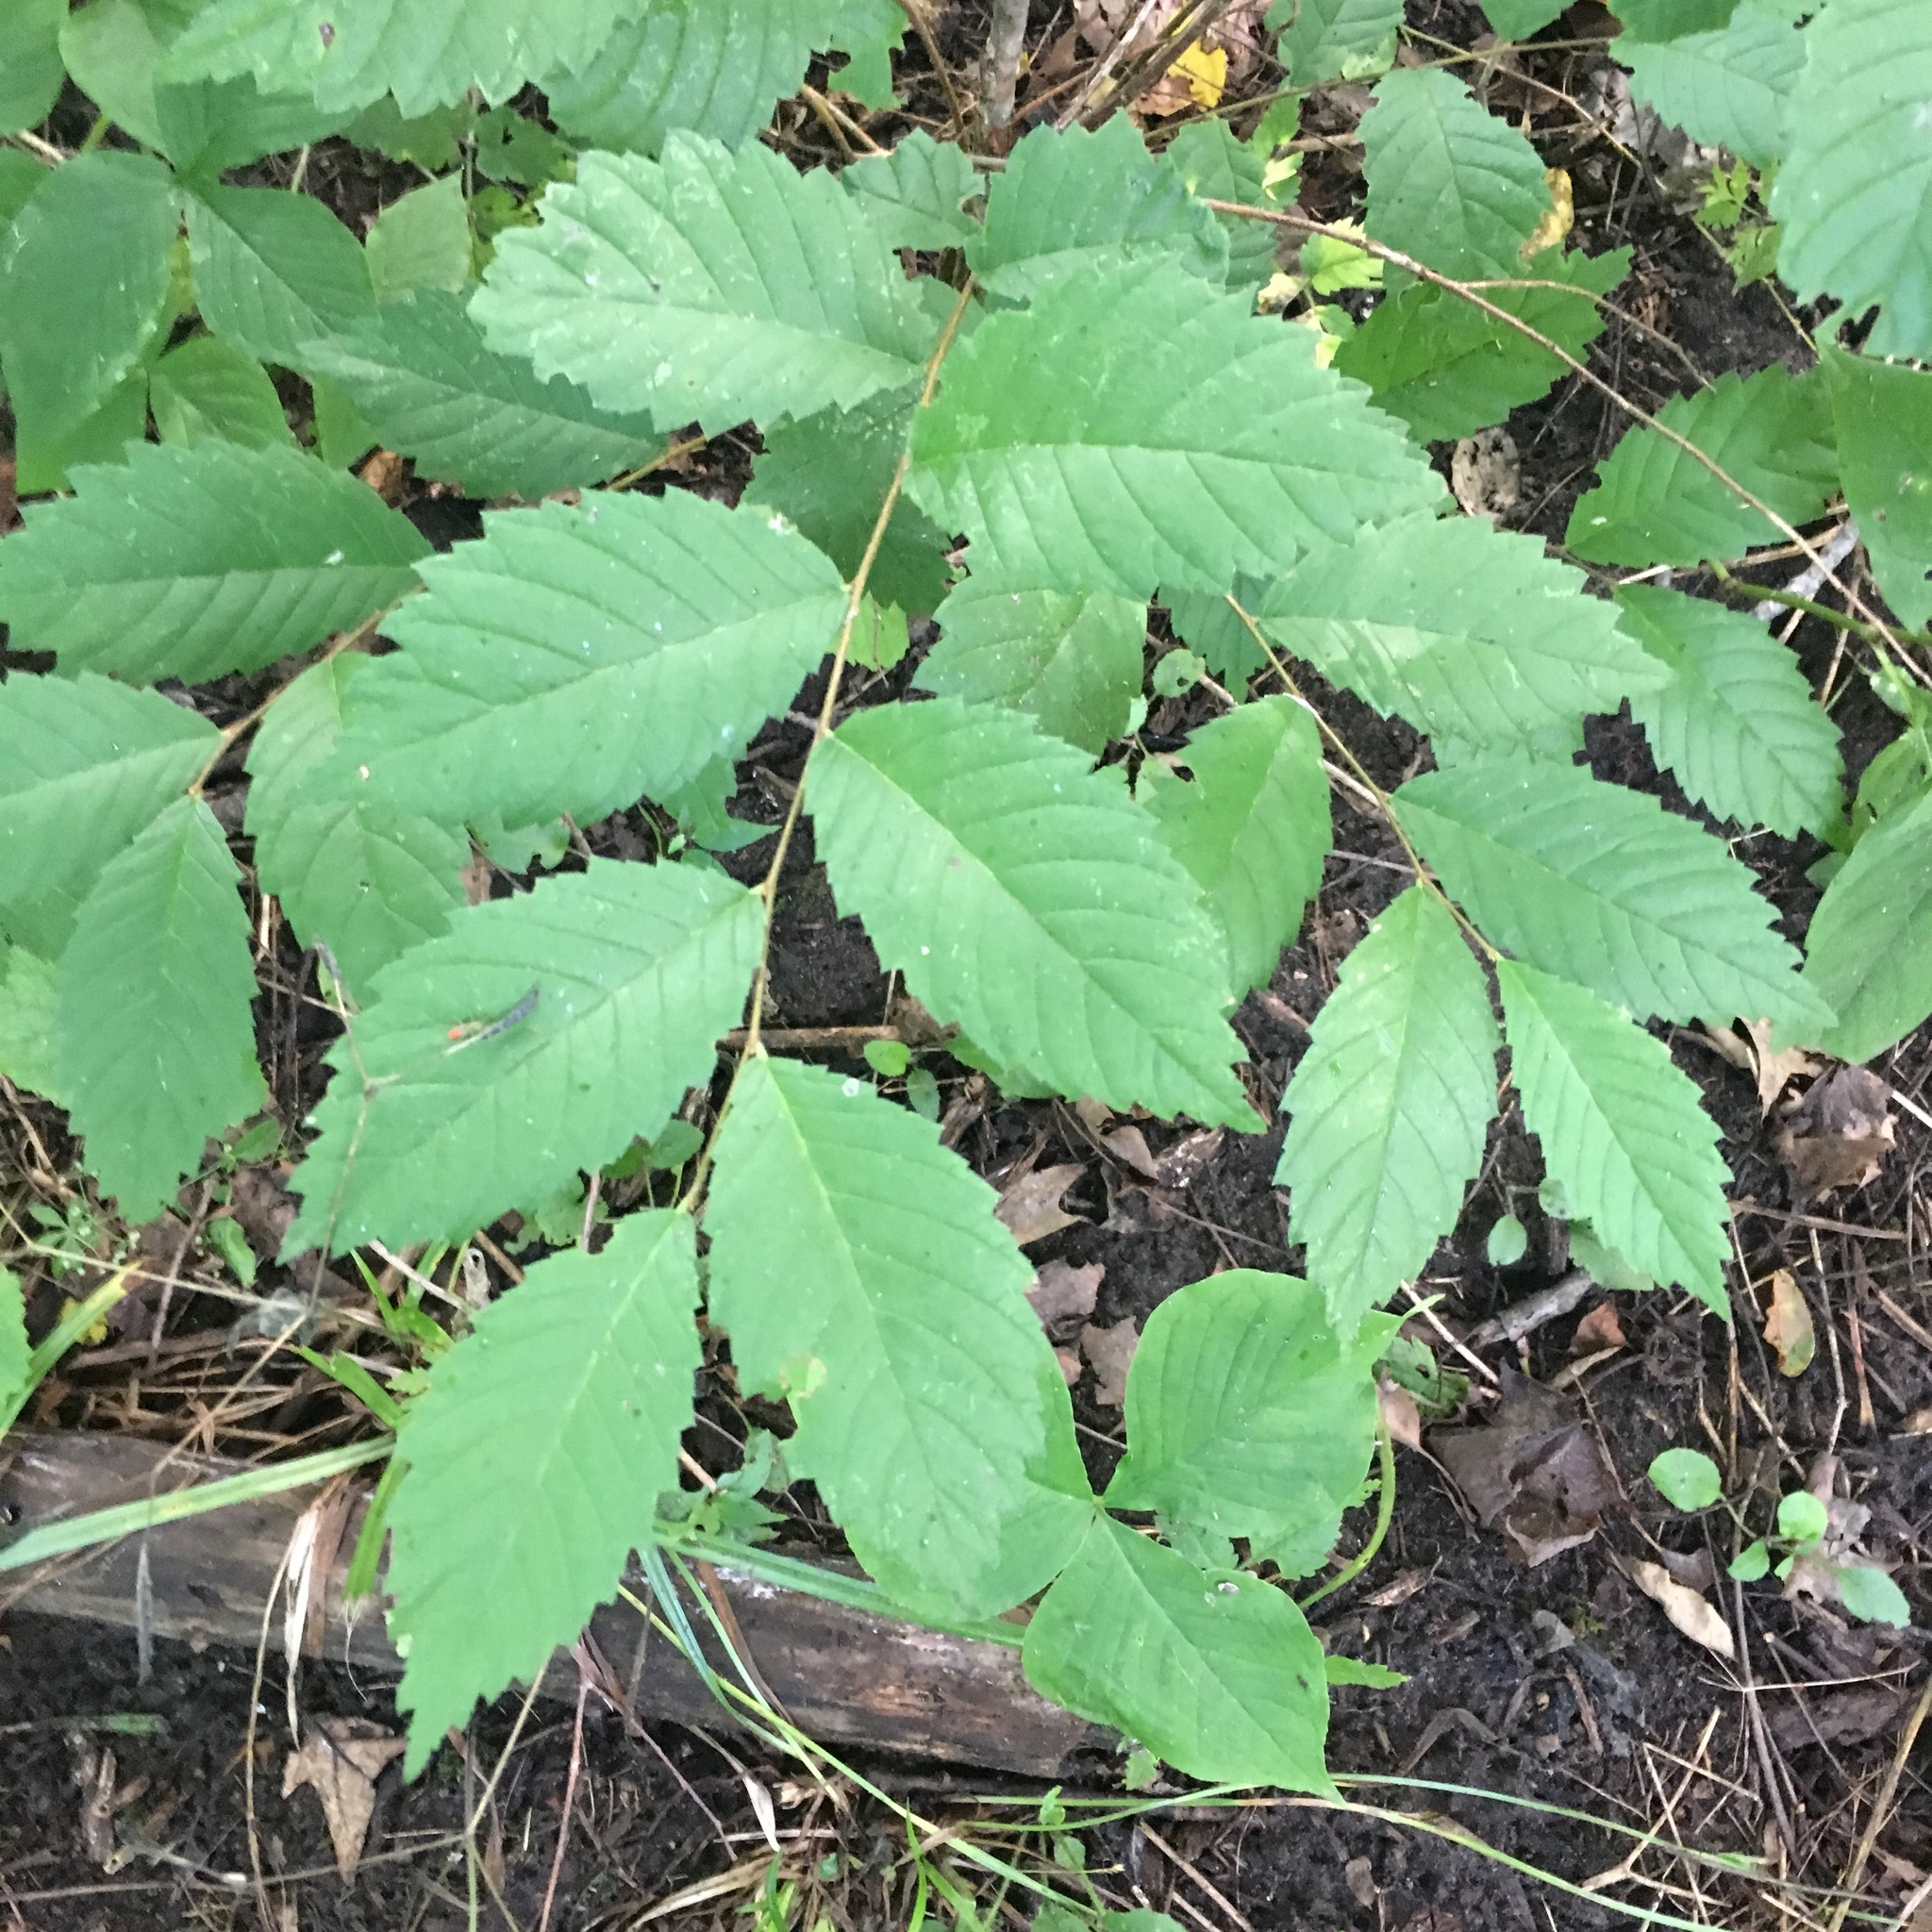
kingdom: Plantae
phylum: Tracheophyta
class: Magnoliopsida
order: Rosales
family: Ulmaceae
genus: Ulmus
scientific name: Ulmus americana
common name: American elm
